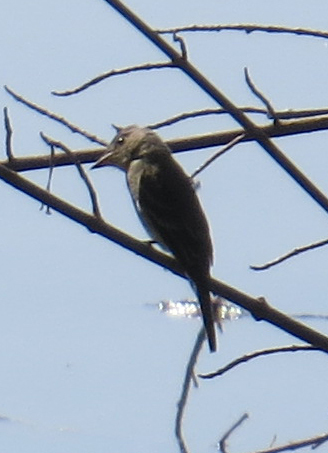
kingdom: Animalia
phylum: Chordata
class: Aves
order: Passeriformes
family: Tyrannidae
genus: Contopus
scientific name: Contopus
